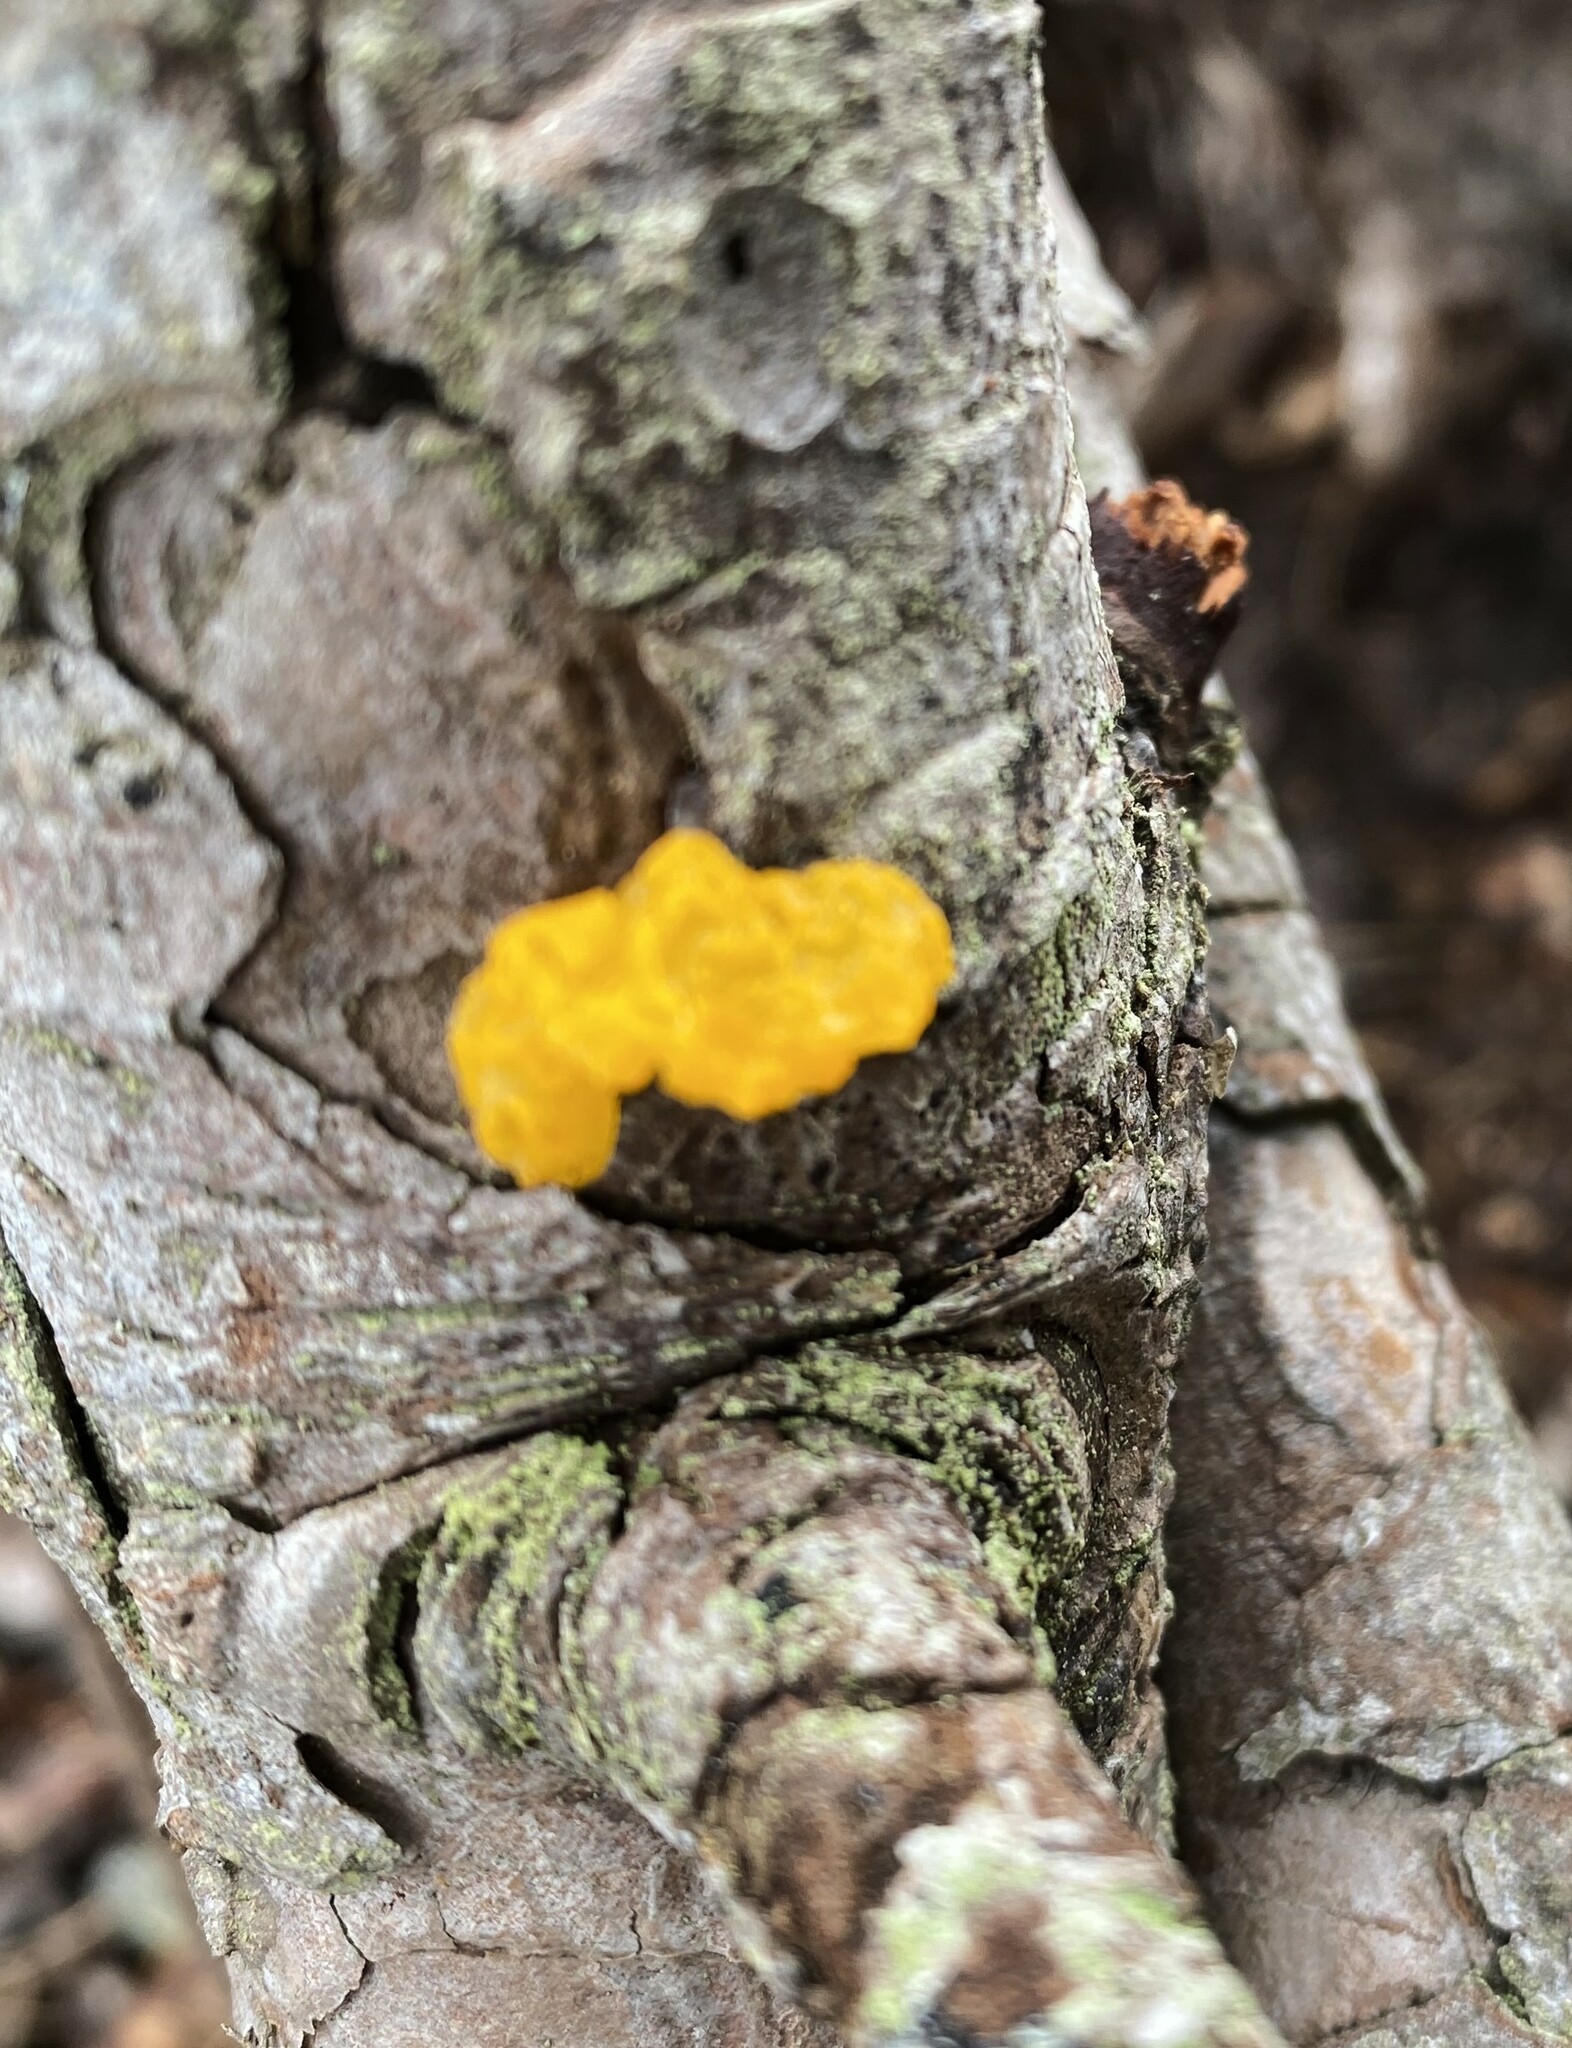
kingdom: Fungi
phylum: Basidiomycota
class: Dacrymycetes
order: Dacrymycetales
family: Dacrymycetaceae
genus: Dacrymyces
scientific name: Dacrymyces chrysospermus
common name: Orange jelly spot
